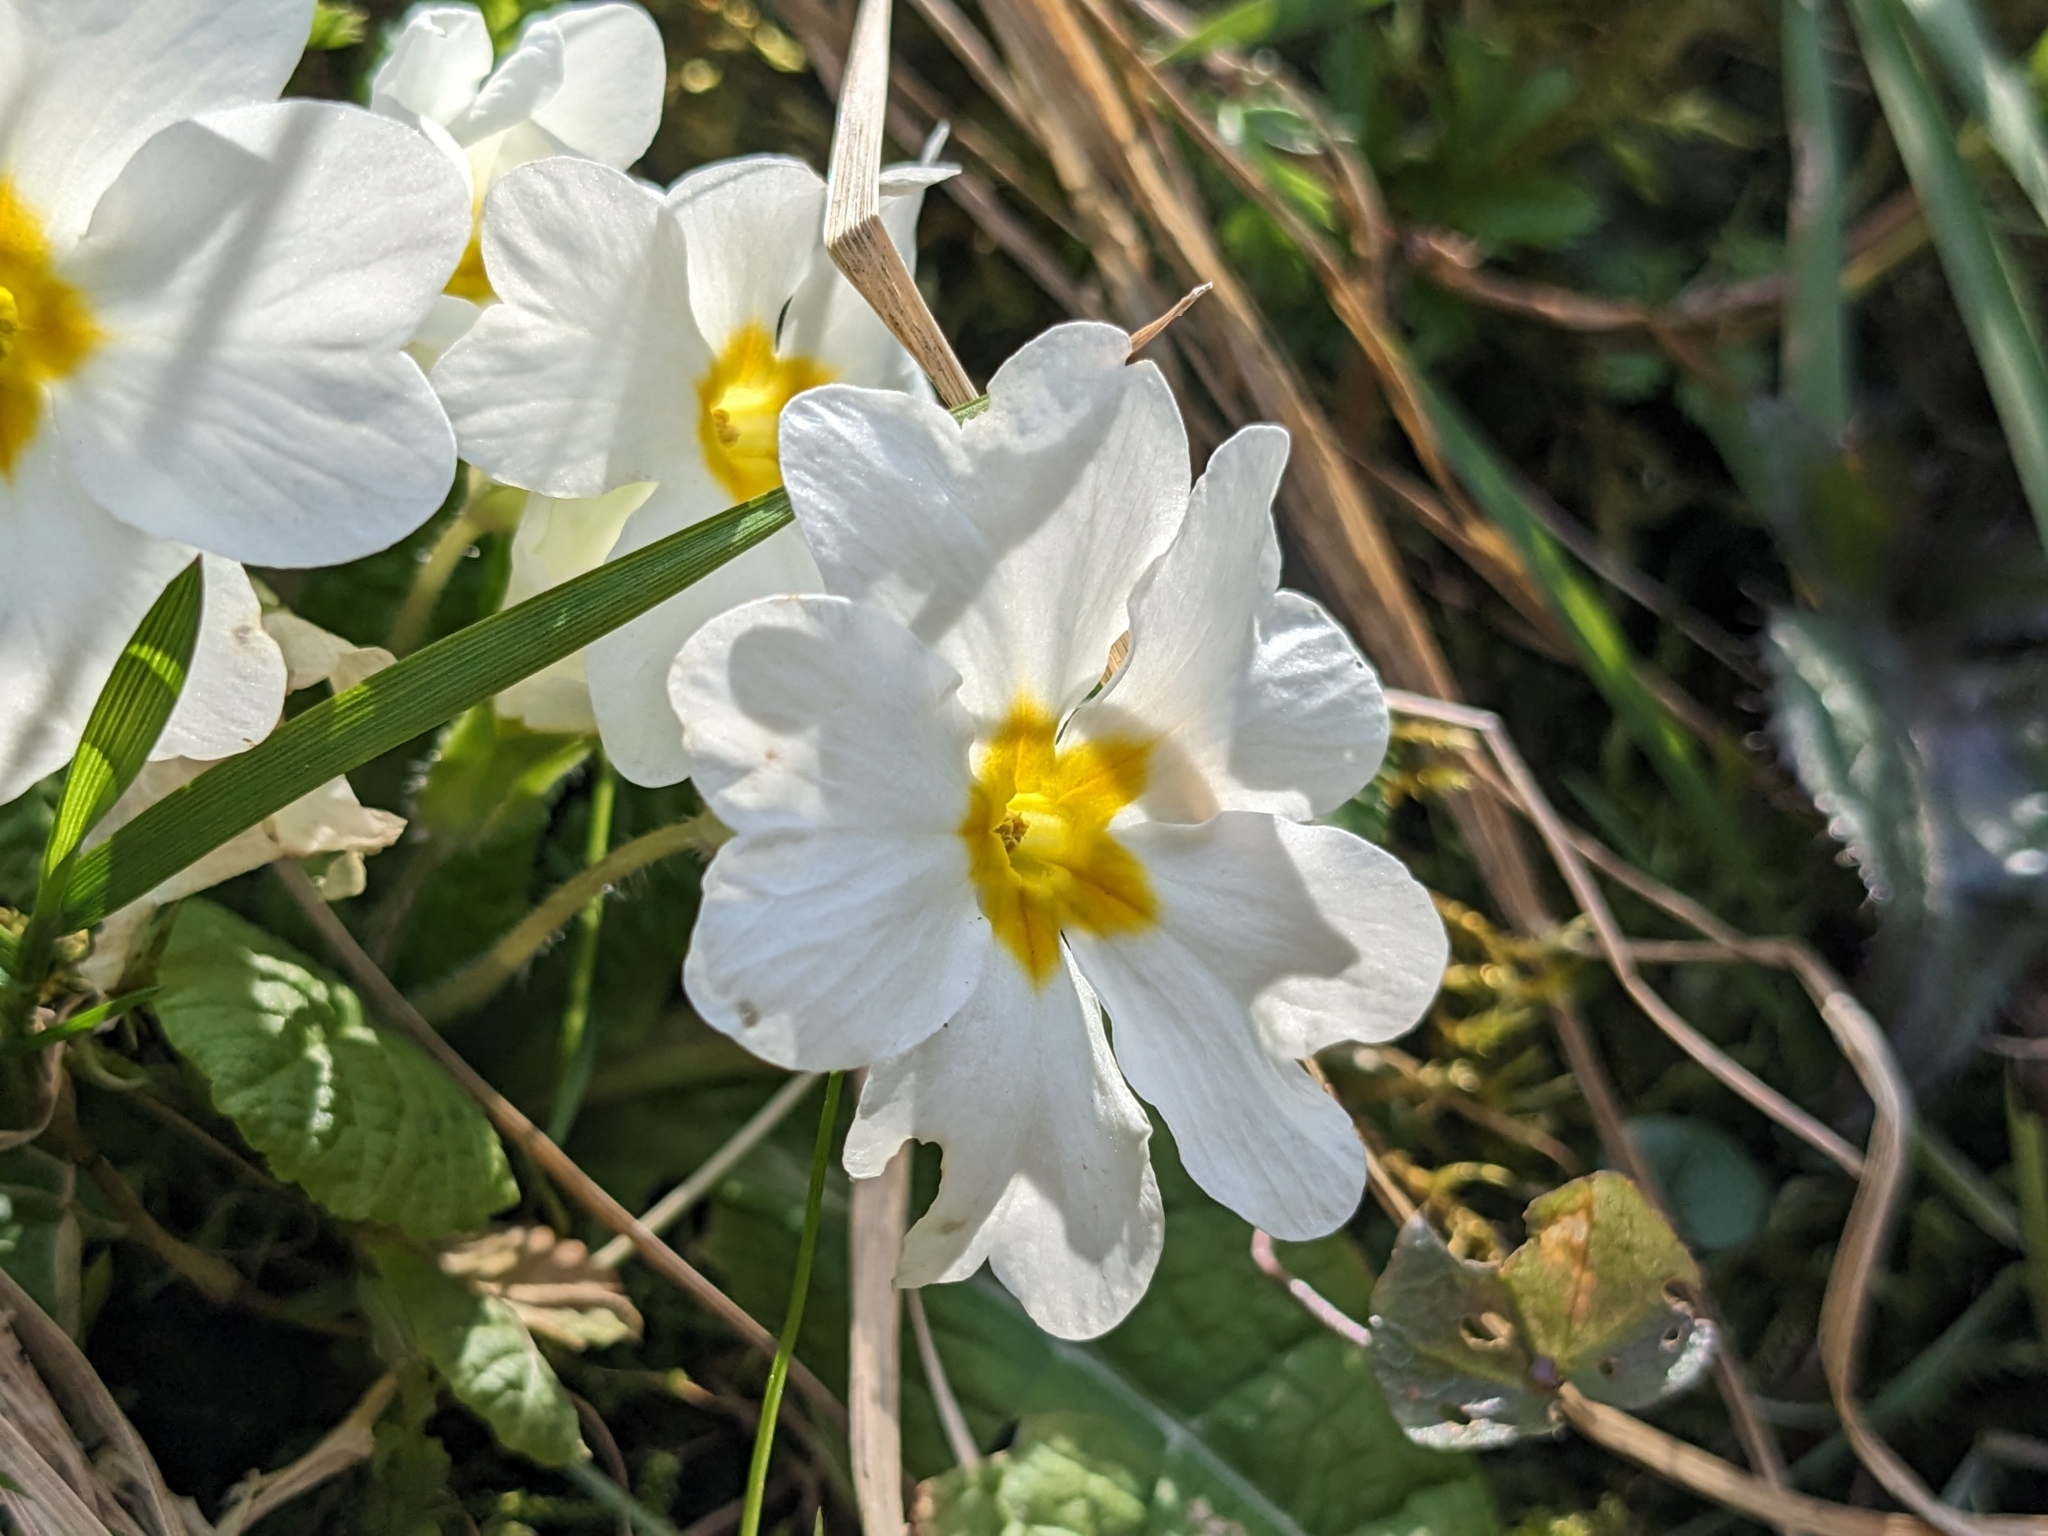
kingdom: Plantae
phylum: Tracheophyta
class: Magnoliopsida
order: Ericales
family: Primulaceae
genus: Primula
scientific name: Primula vulgaris
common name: Primrose
